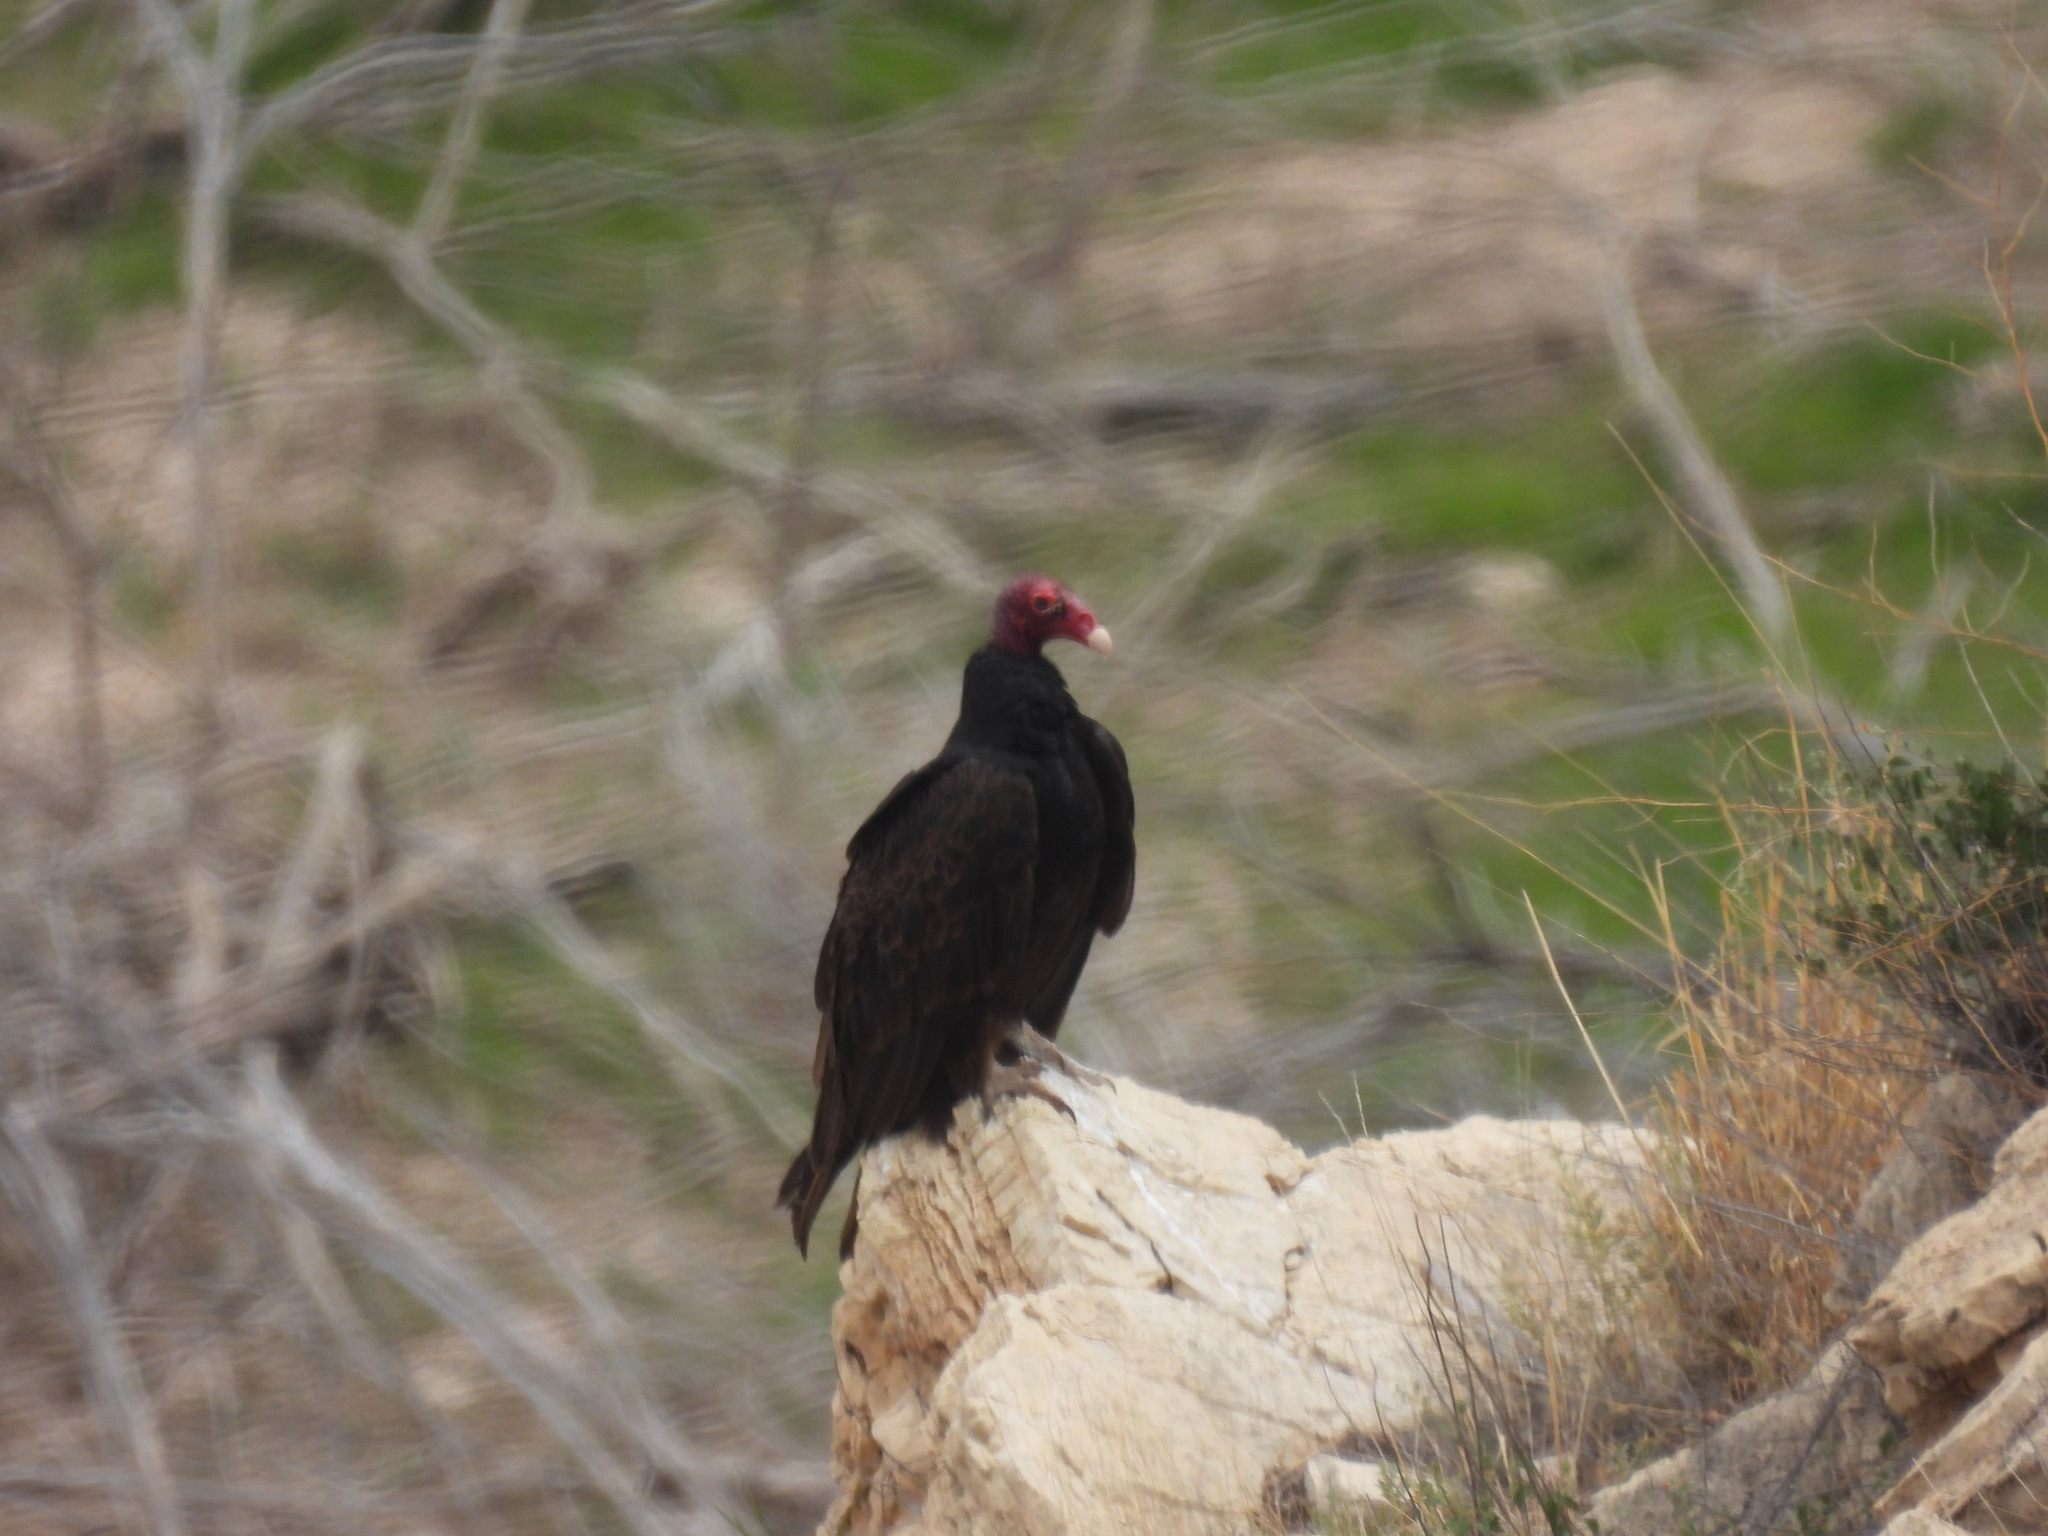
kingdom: Animalia
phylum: Chordata
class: Aves
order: Accipitriformes
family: Cathartidae
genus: Cathartes
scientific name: Cathartes aura
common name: Turkey vulture
